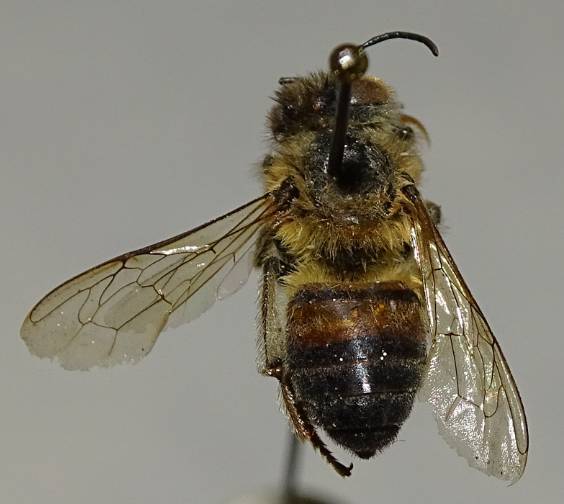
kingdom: Animalia
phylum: Arthropoda
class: Insecta
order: Hymenoptera
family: Apidae
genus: Apis
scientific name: Apis mellifera
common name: Honey bee
